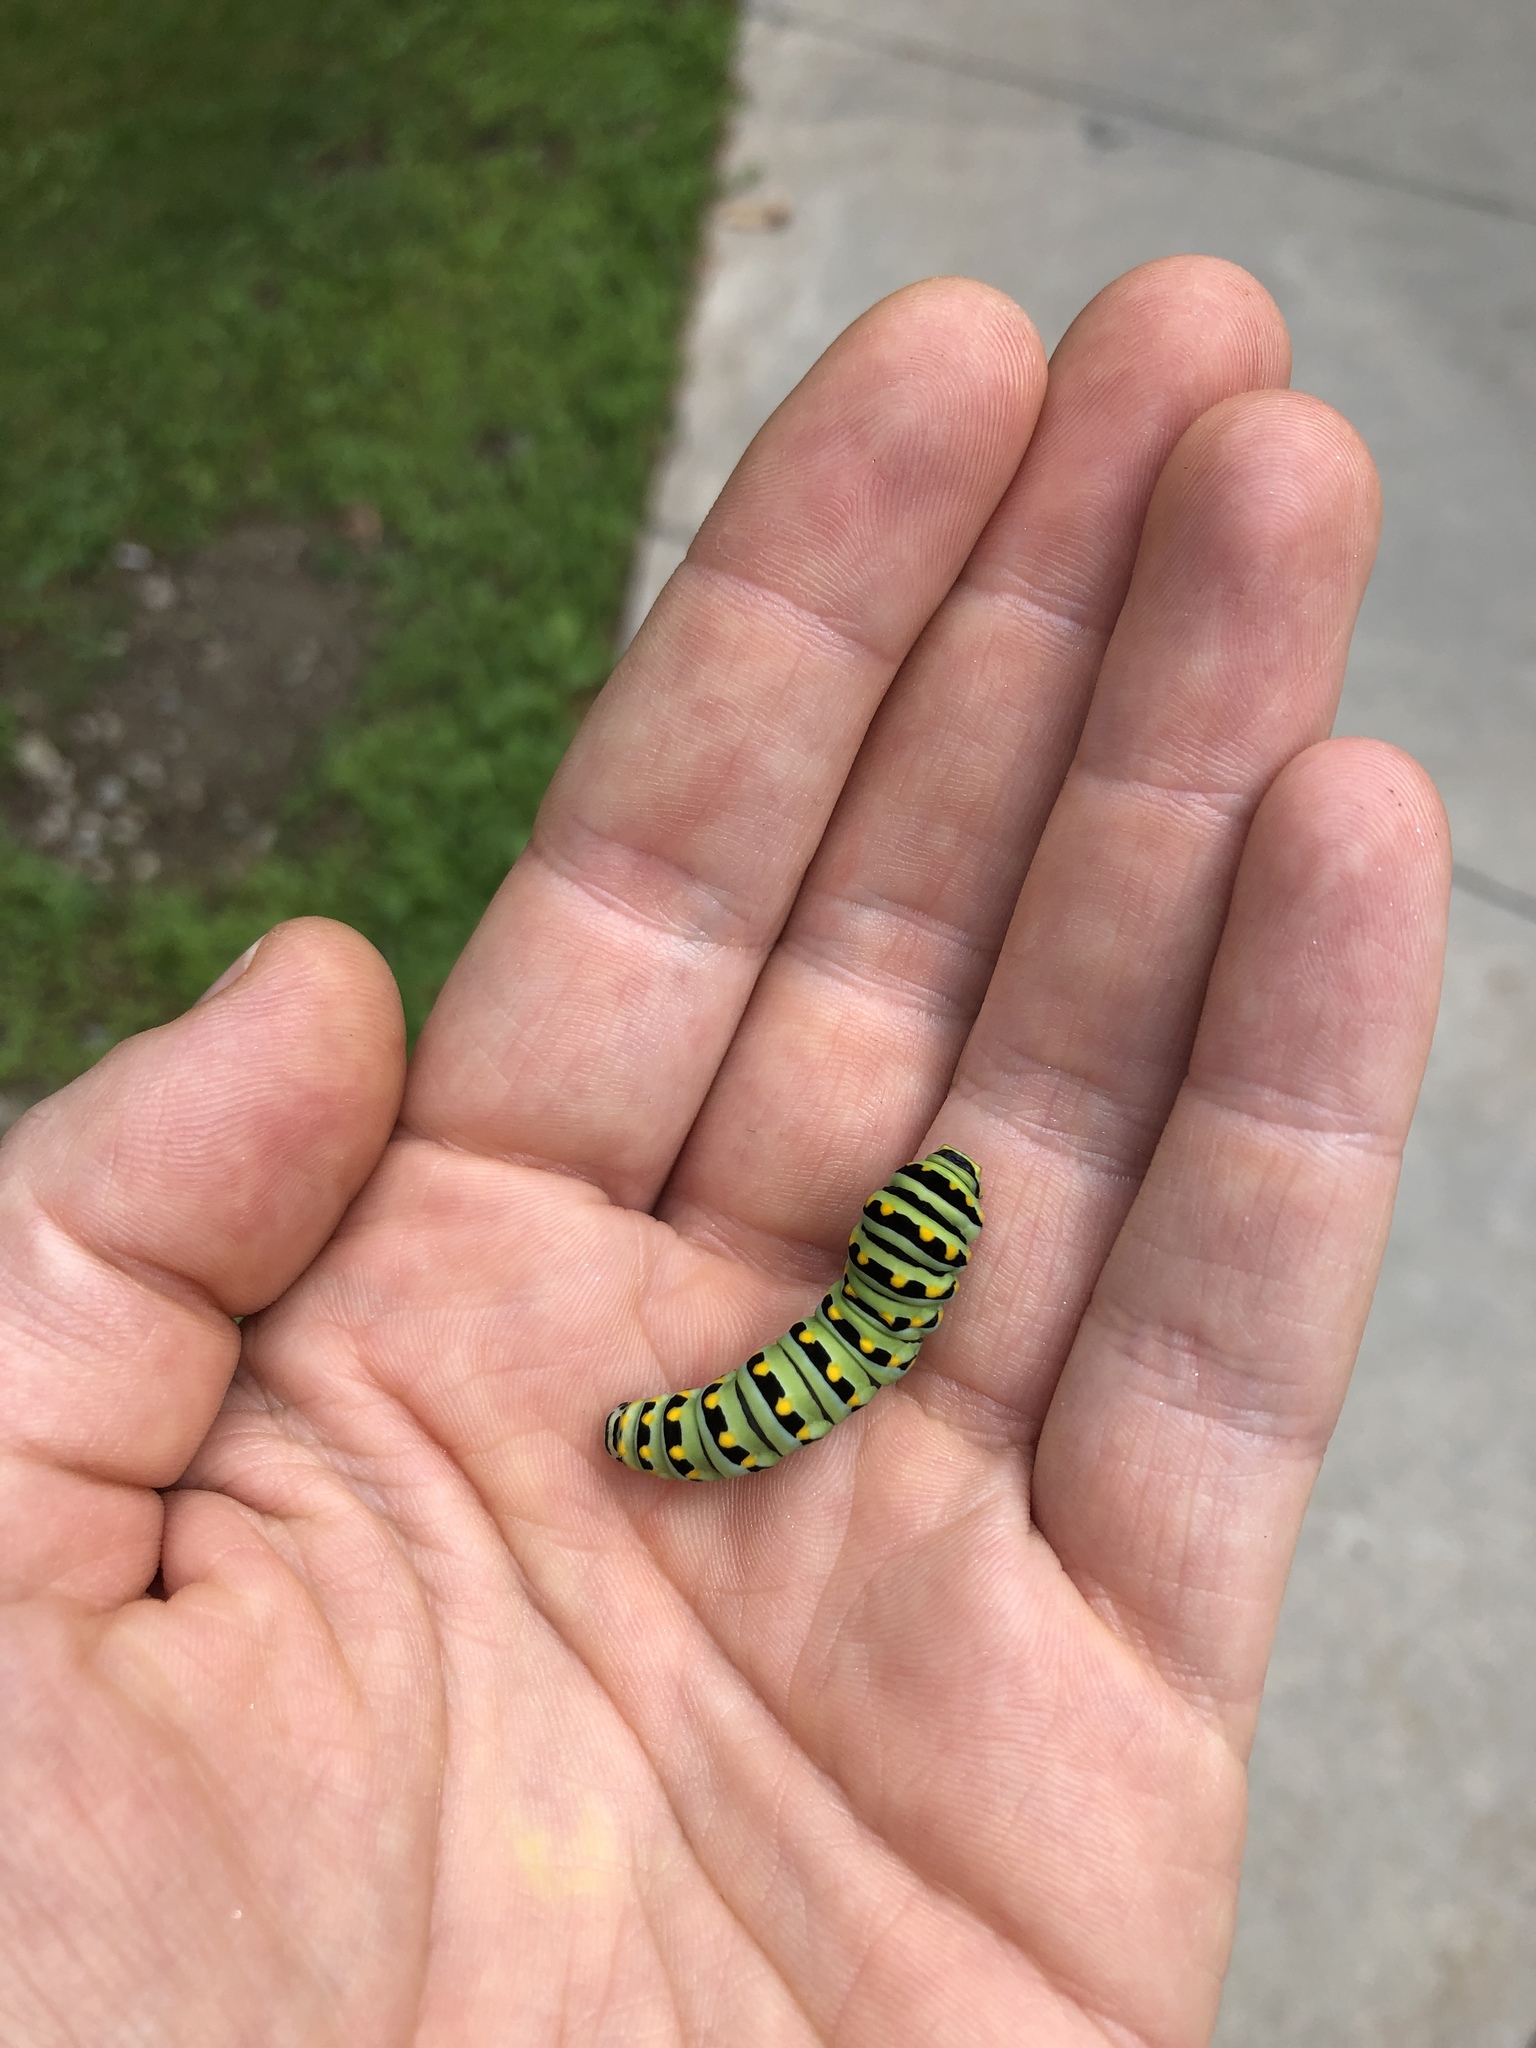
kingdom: Animalia
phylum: Arthropoda
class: Insecta
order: Lepidoptera
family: Papilionidae
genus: Papilio
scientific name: Papilio polyxenes
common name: Black swallowtail
